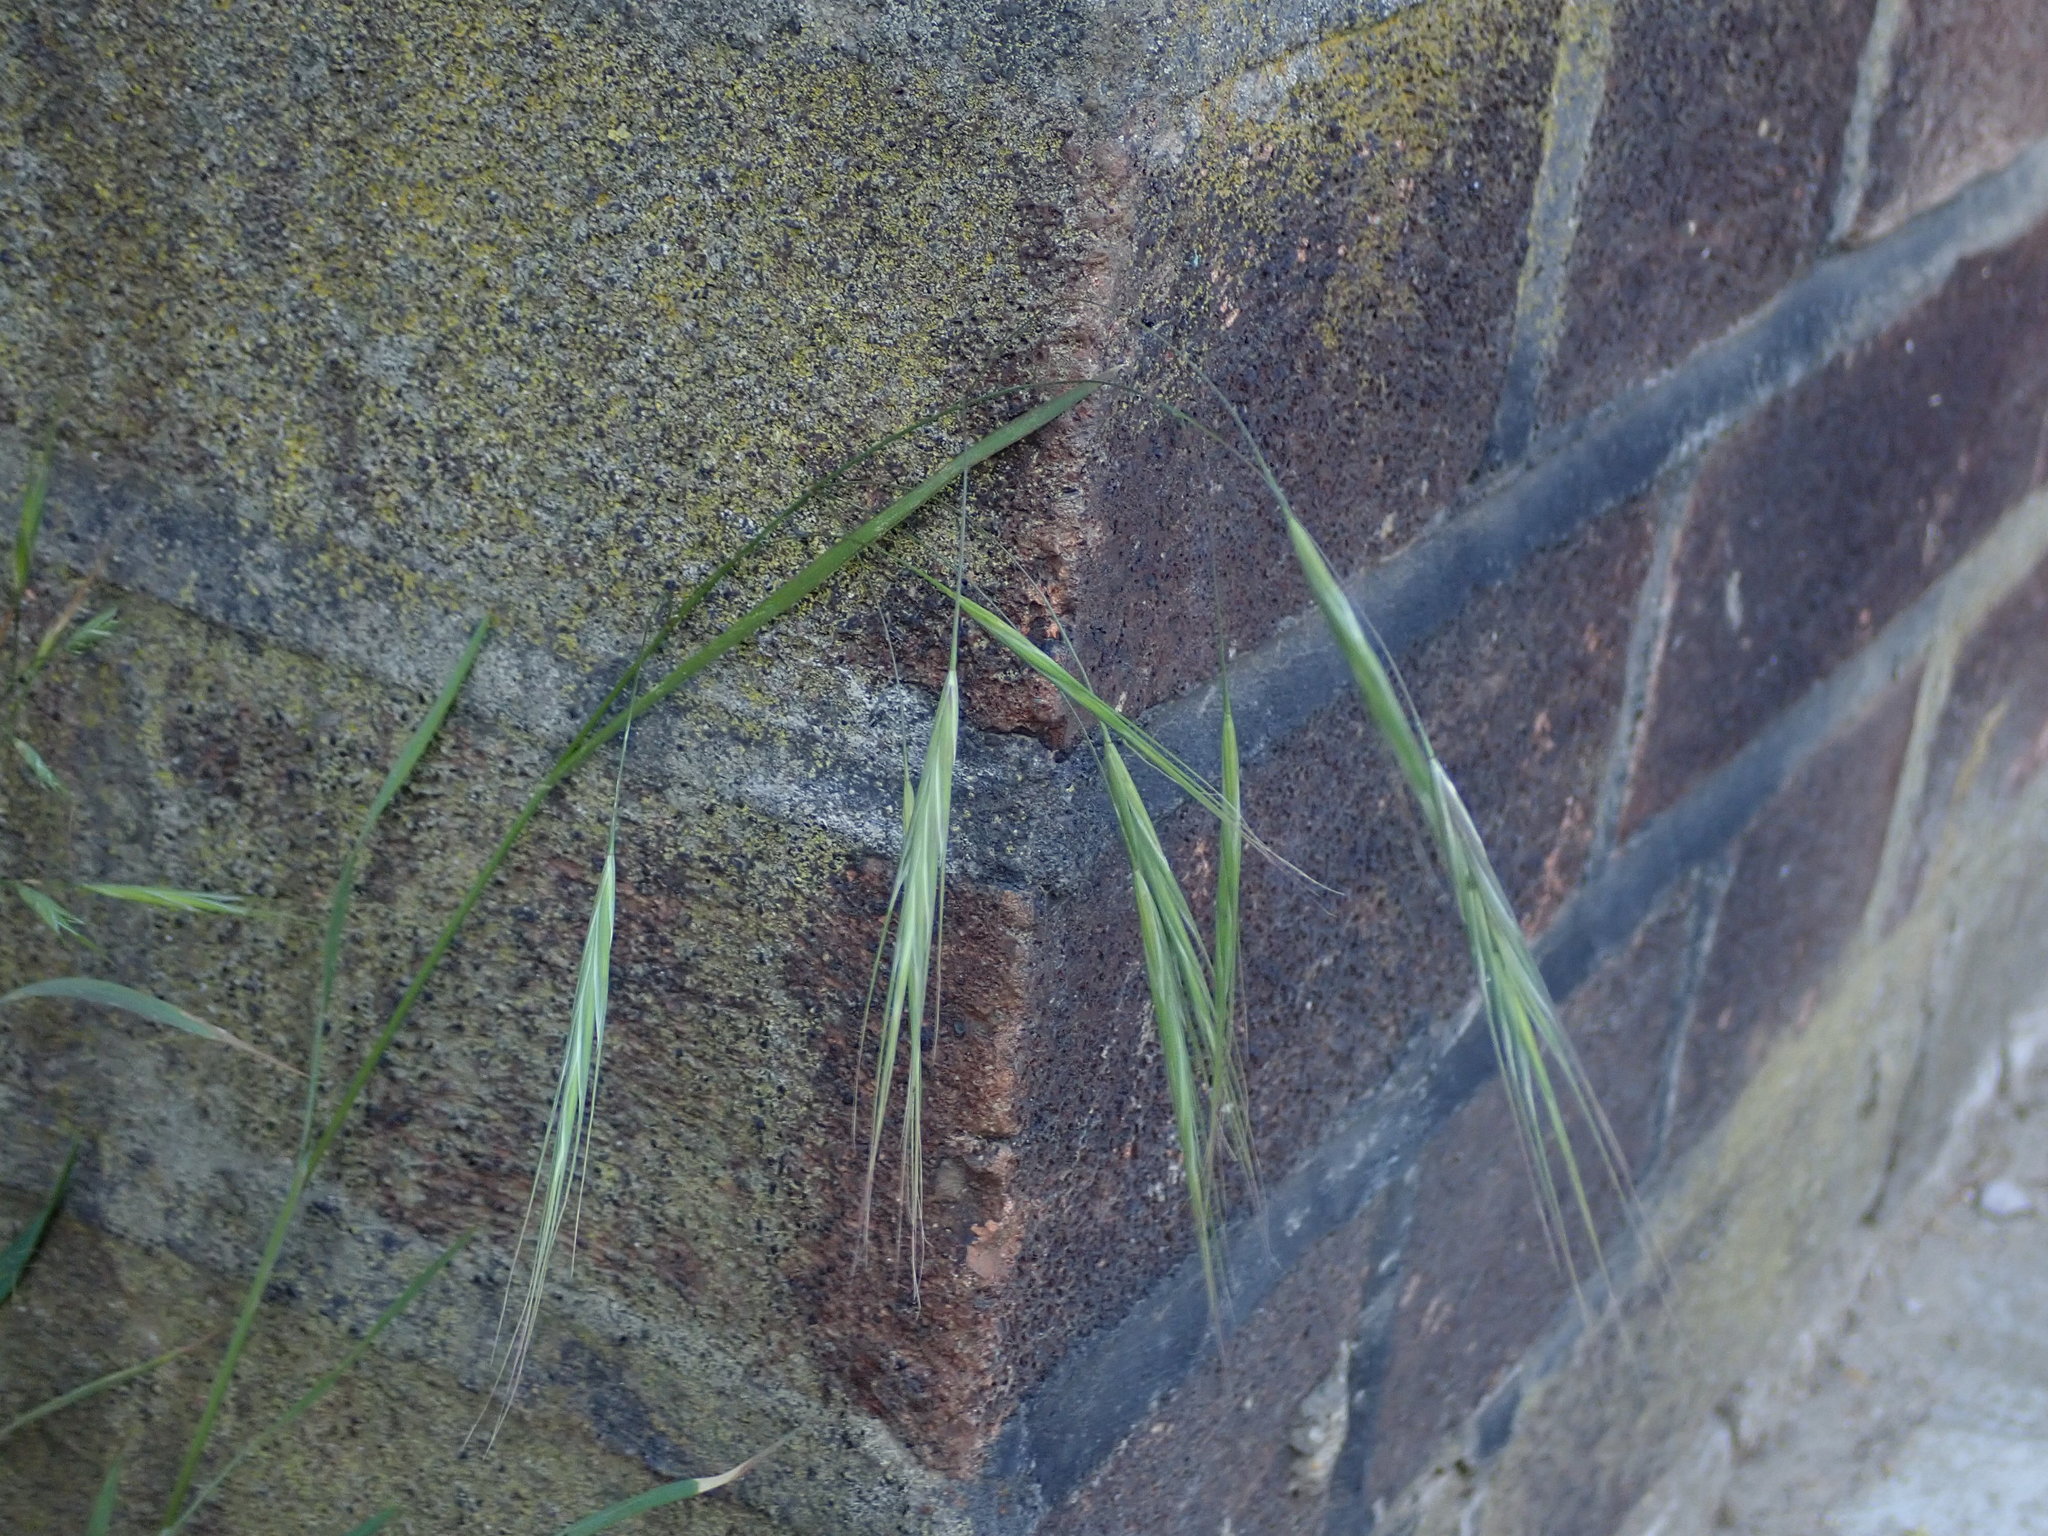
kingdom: Plantae
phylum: Tracheophyta
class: Liliopsida
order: Poales
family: Poaceae
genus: Bromus
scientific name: Bromus sterilis
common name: Poverty brome
